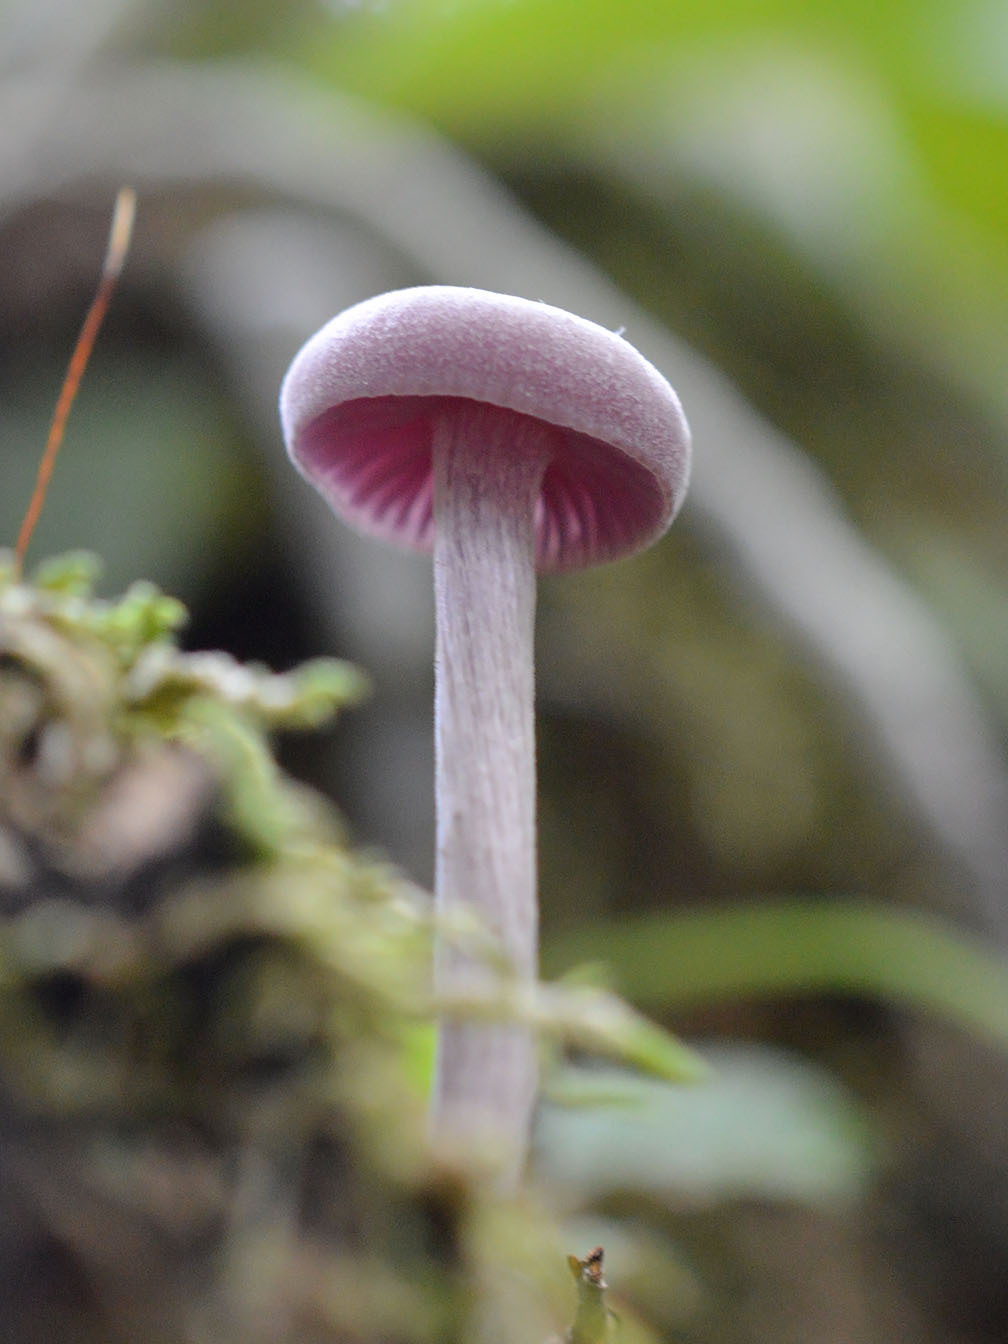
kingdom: Fungi
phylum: Basidiomycota
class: Agaricomycetes
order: Agaricales
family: Hydnangiaceae
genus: Laccaria
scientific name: Laccaria amethystina
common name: Amethyst deceiver
